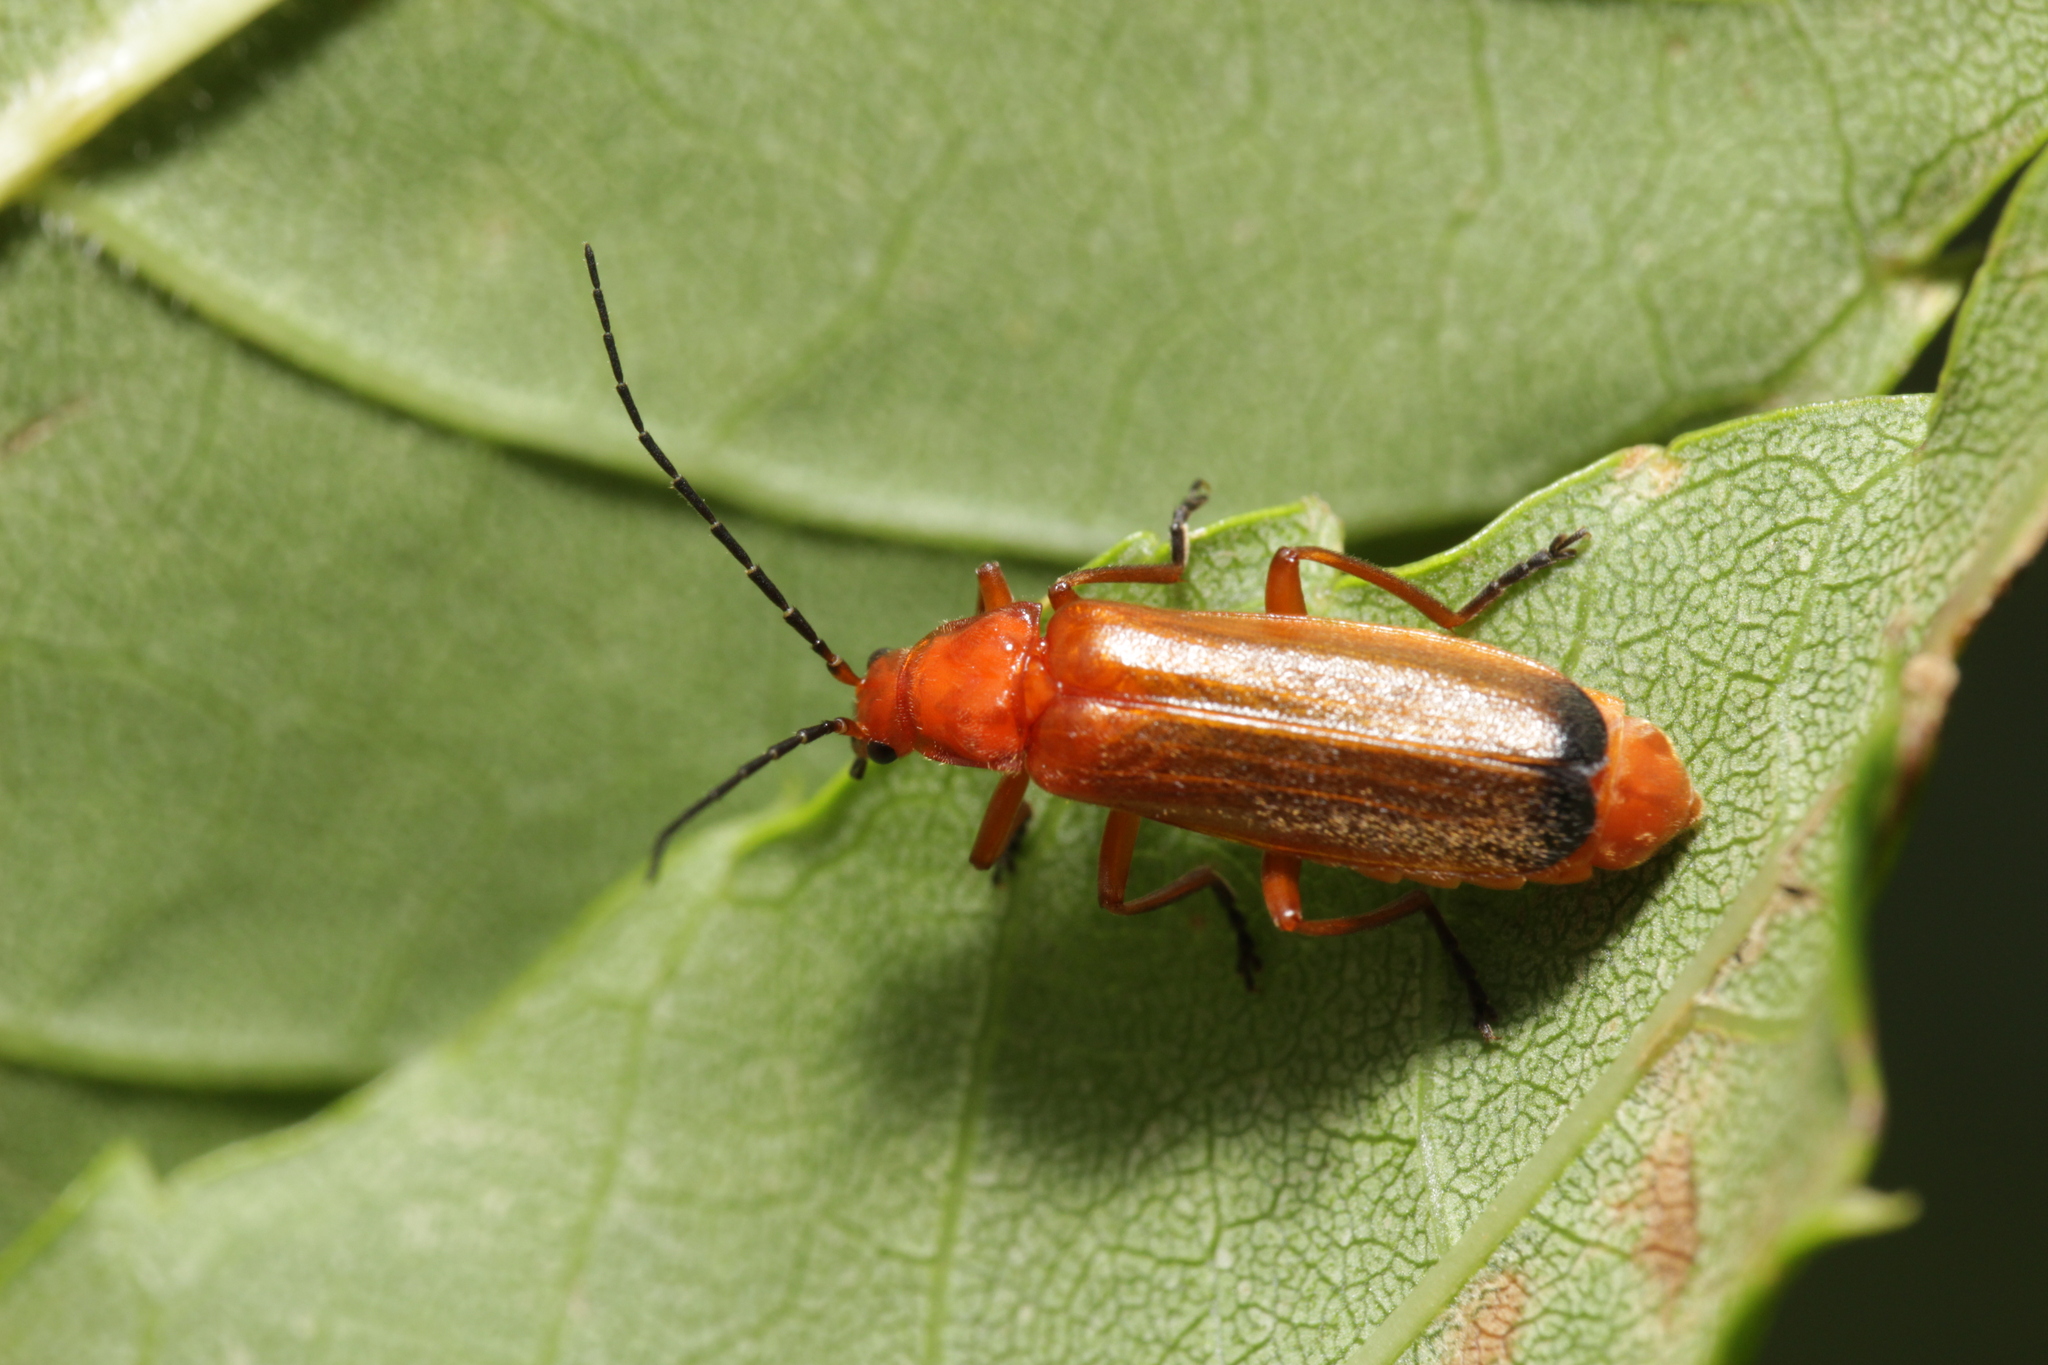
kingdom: Animalia
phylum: Arthropoda
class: Insecta
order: Coleoptera
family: Cantharidae
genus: Rhagonycha
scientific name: Rhagonycha fulva
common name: Common red soldier beetle
